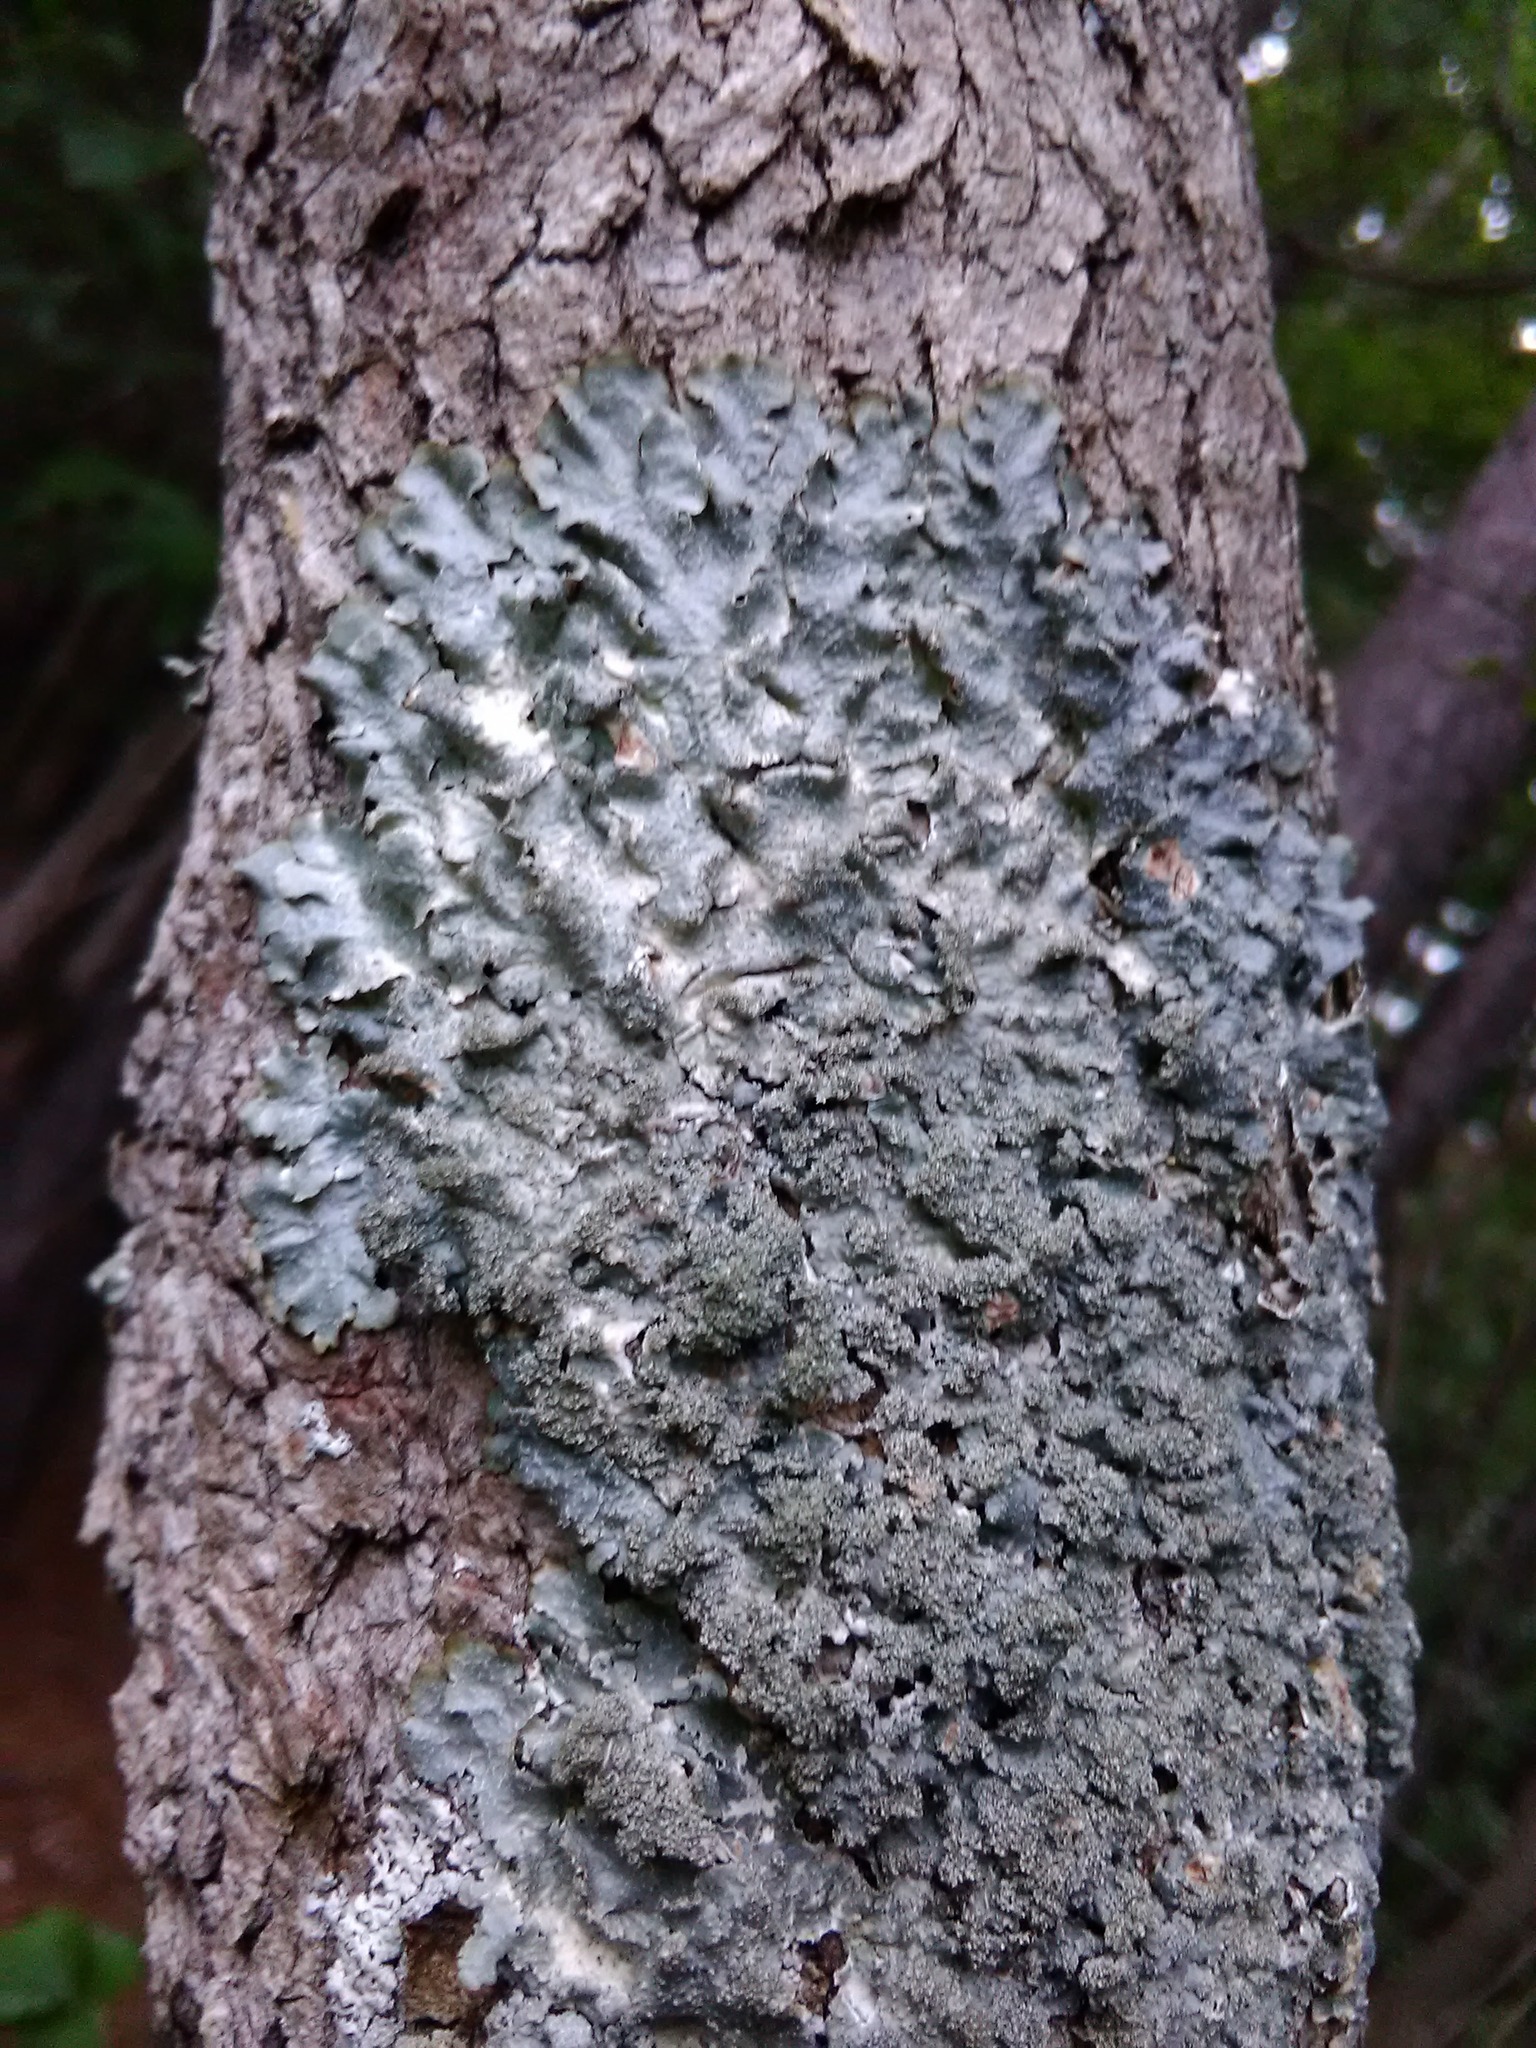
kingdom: Fungi
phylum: Ascomycota
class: Lecanoromycetes
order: Lecanorales
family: Parmeliaceae
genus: Punctelia
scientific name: Punctelia rudecta
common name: Rough speckled shield lichen
